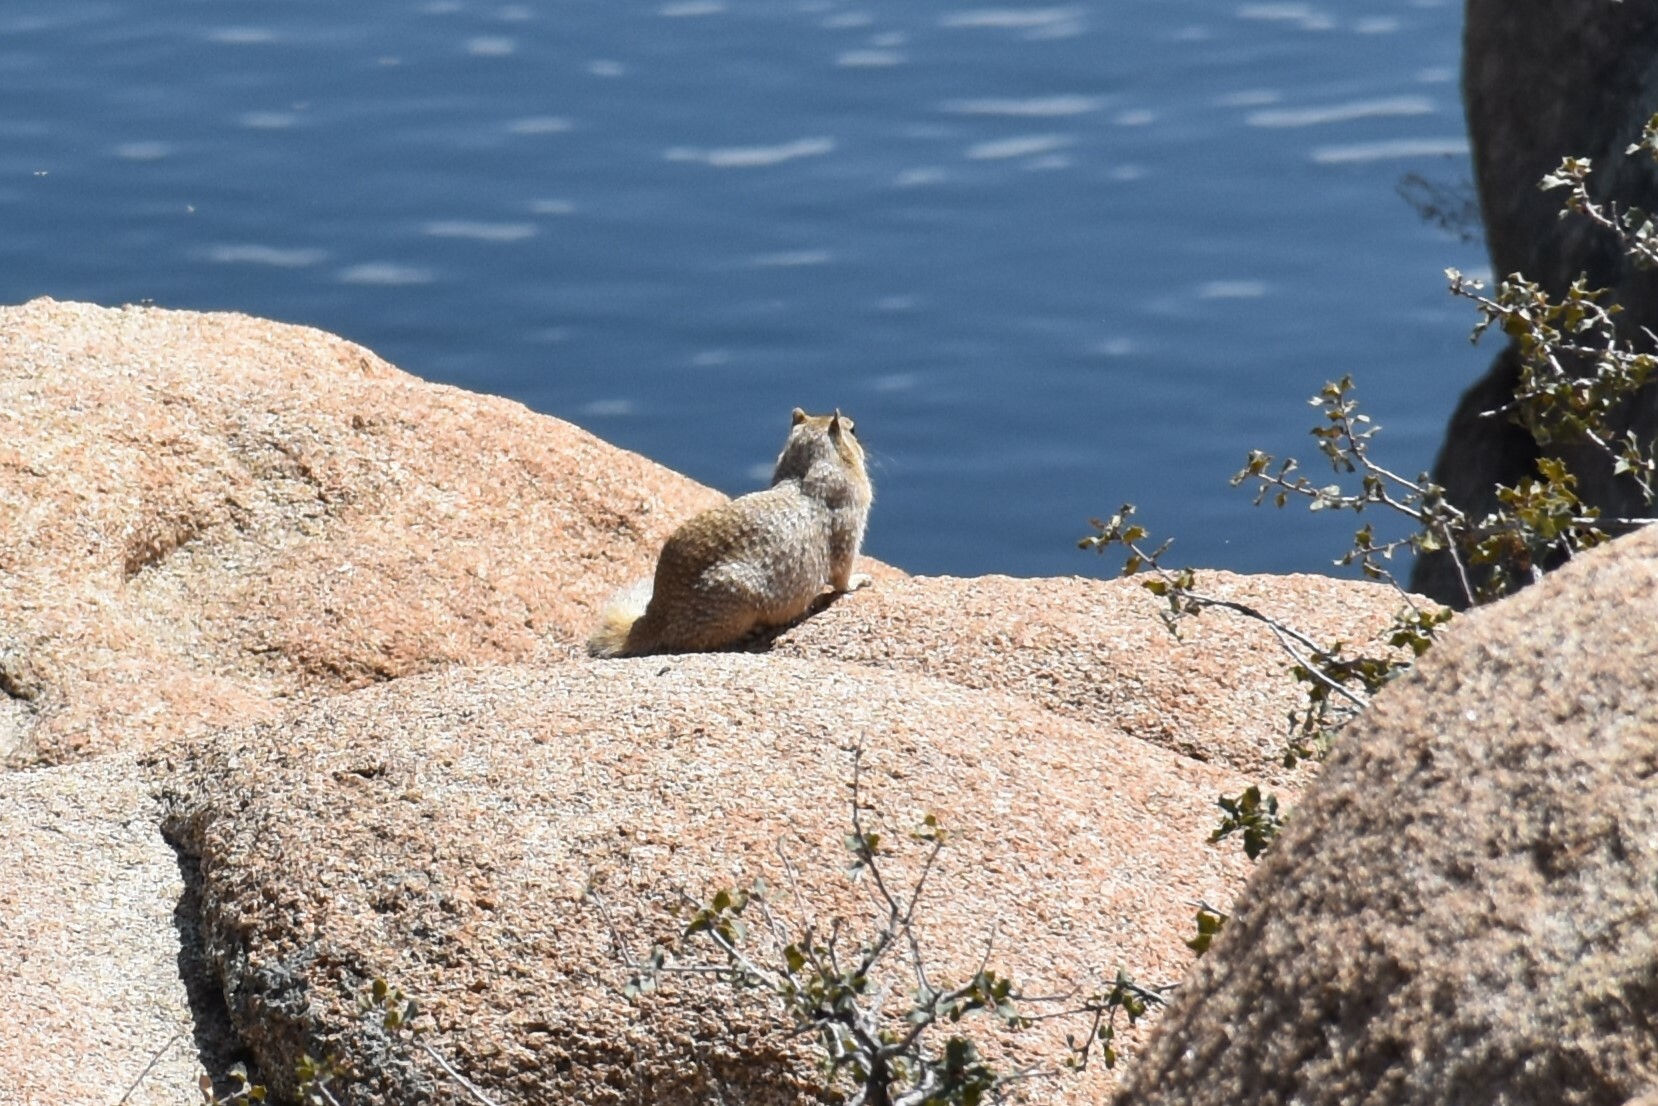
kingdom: Animalia
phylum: Chordata
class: Mammalia
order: Rodentia
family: Sciuridae
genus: Otospermophilus
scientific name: Otospermophilus variegatus
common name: Rock squirrel
